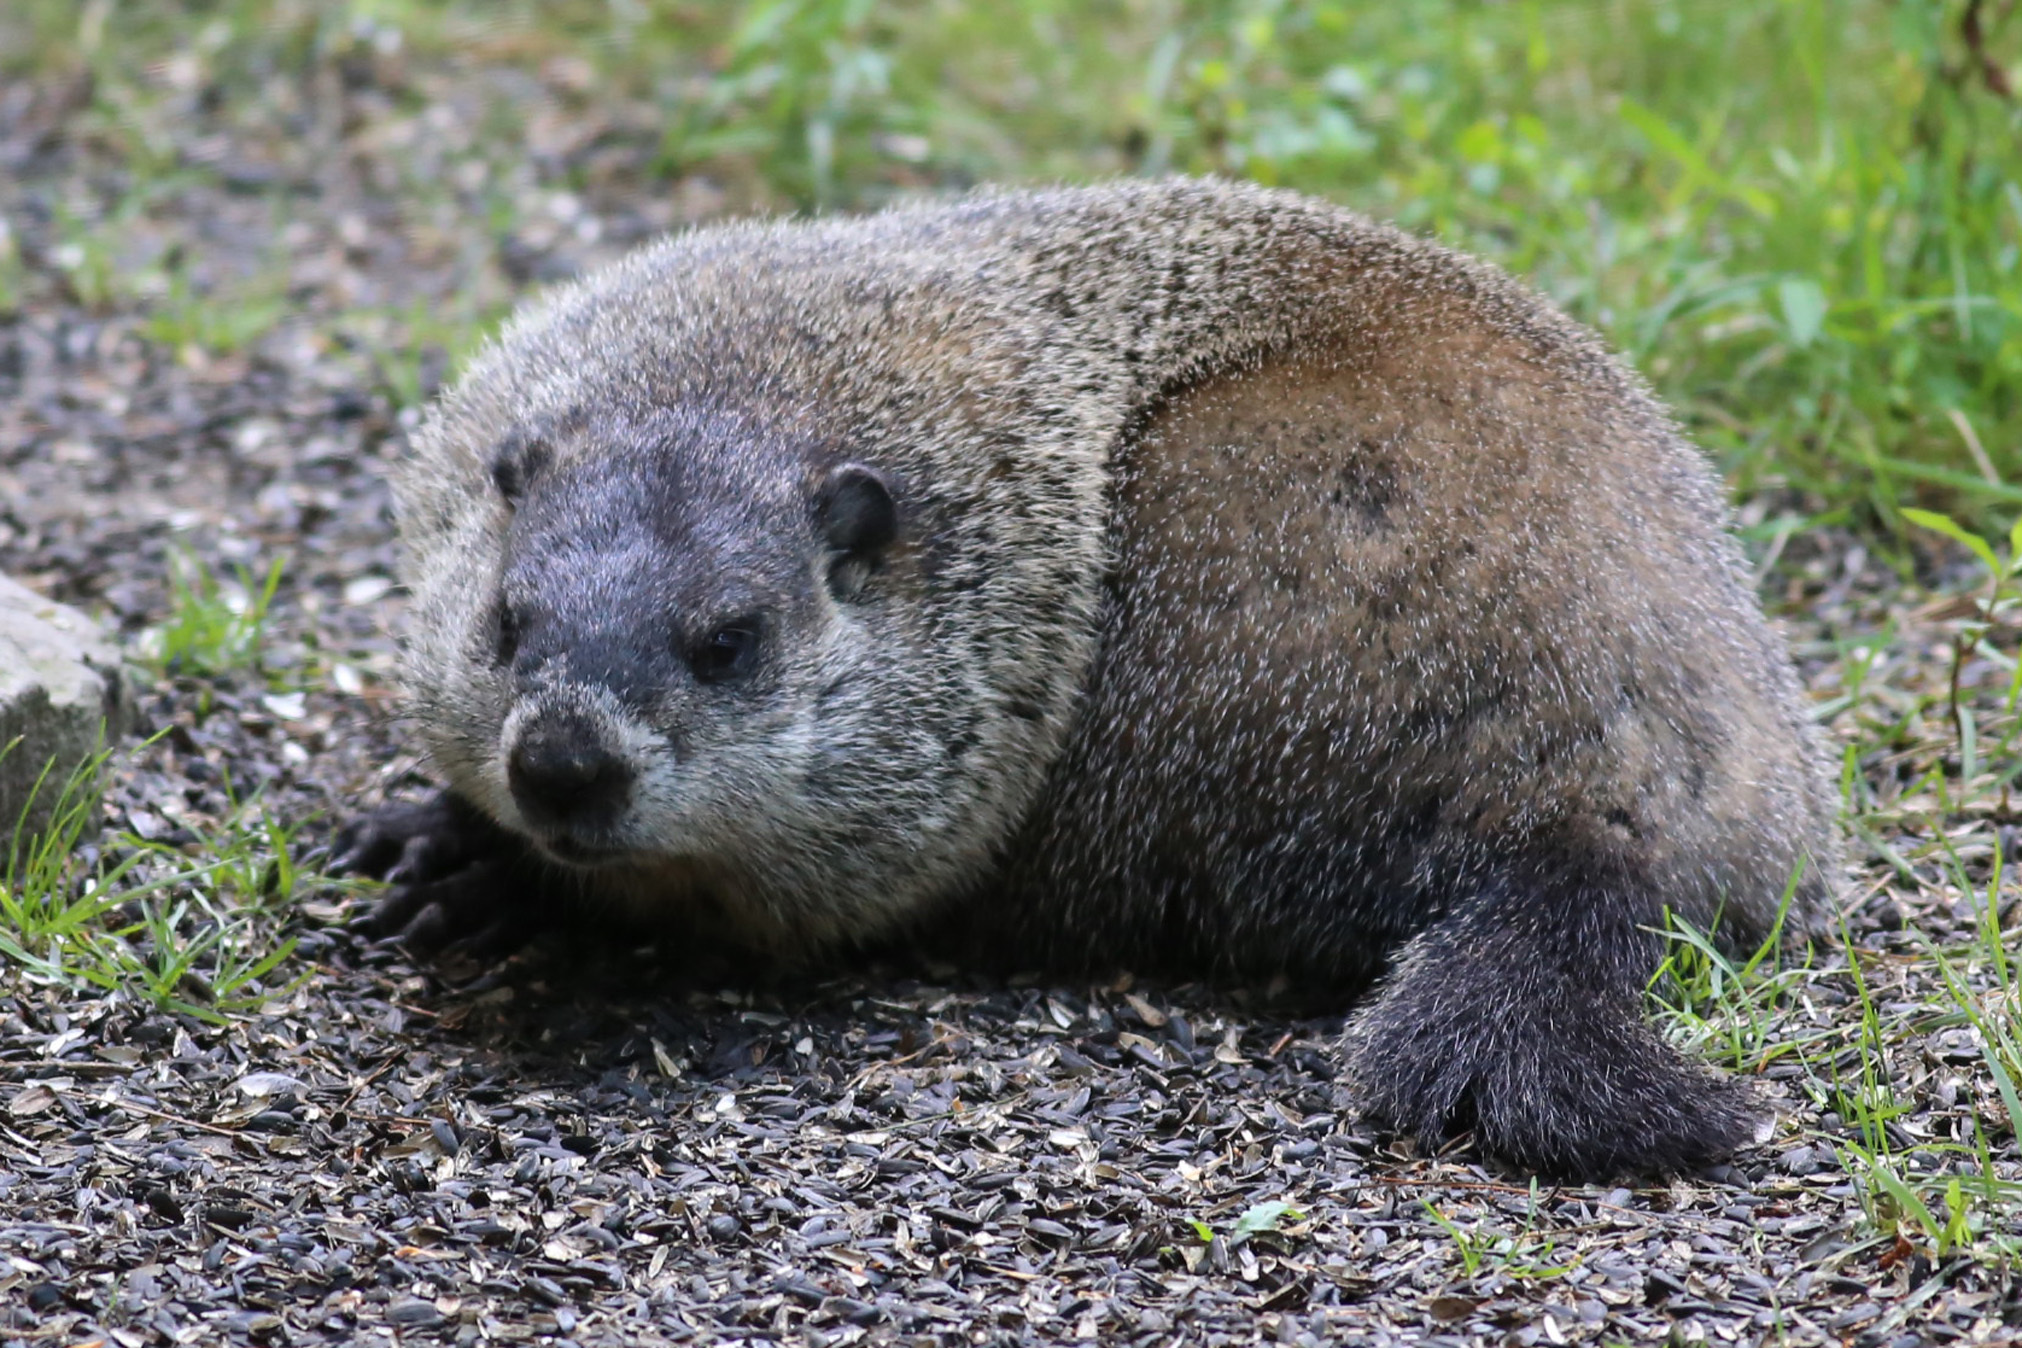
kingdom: Animalia
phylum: Chordata
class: Mammalia
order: Rodentia
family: Sciuridae
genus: Marmota
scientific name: Marmota monax
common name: Groundhog
